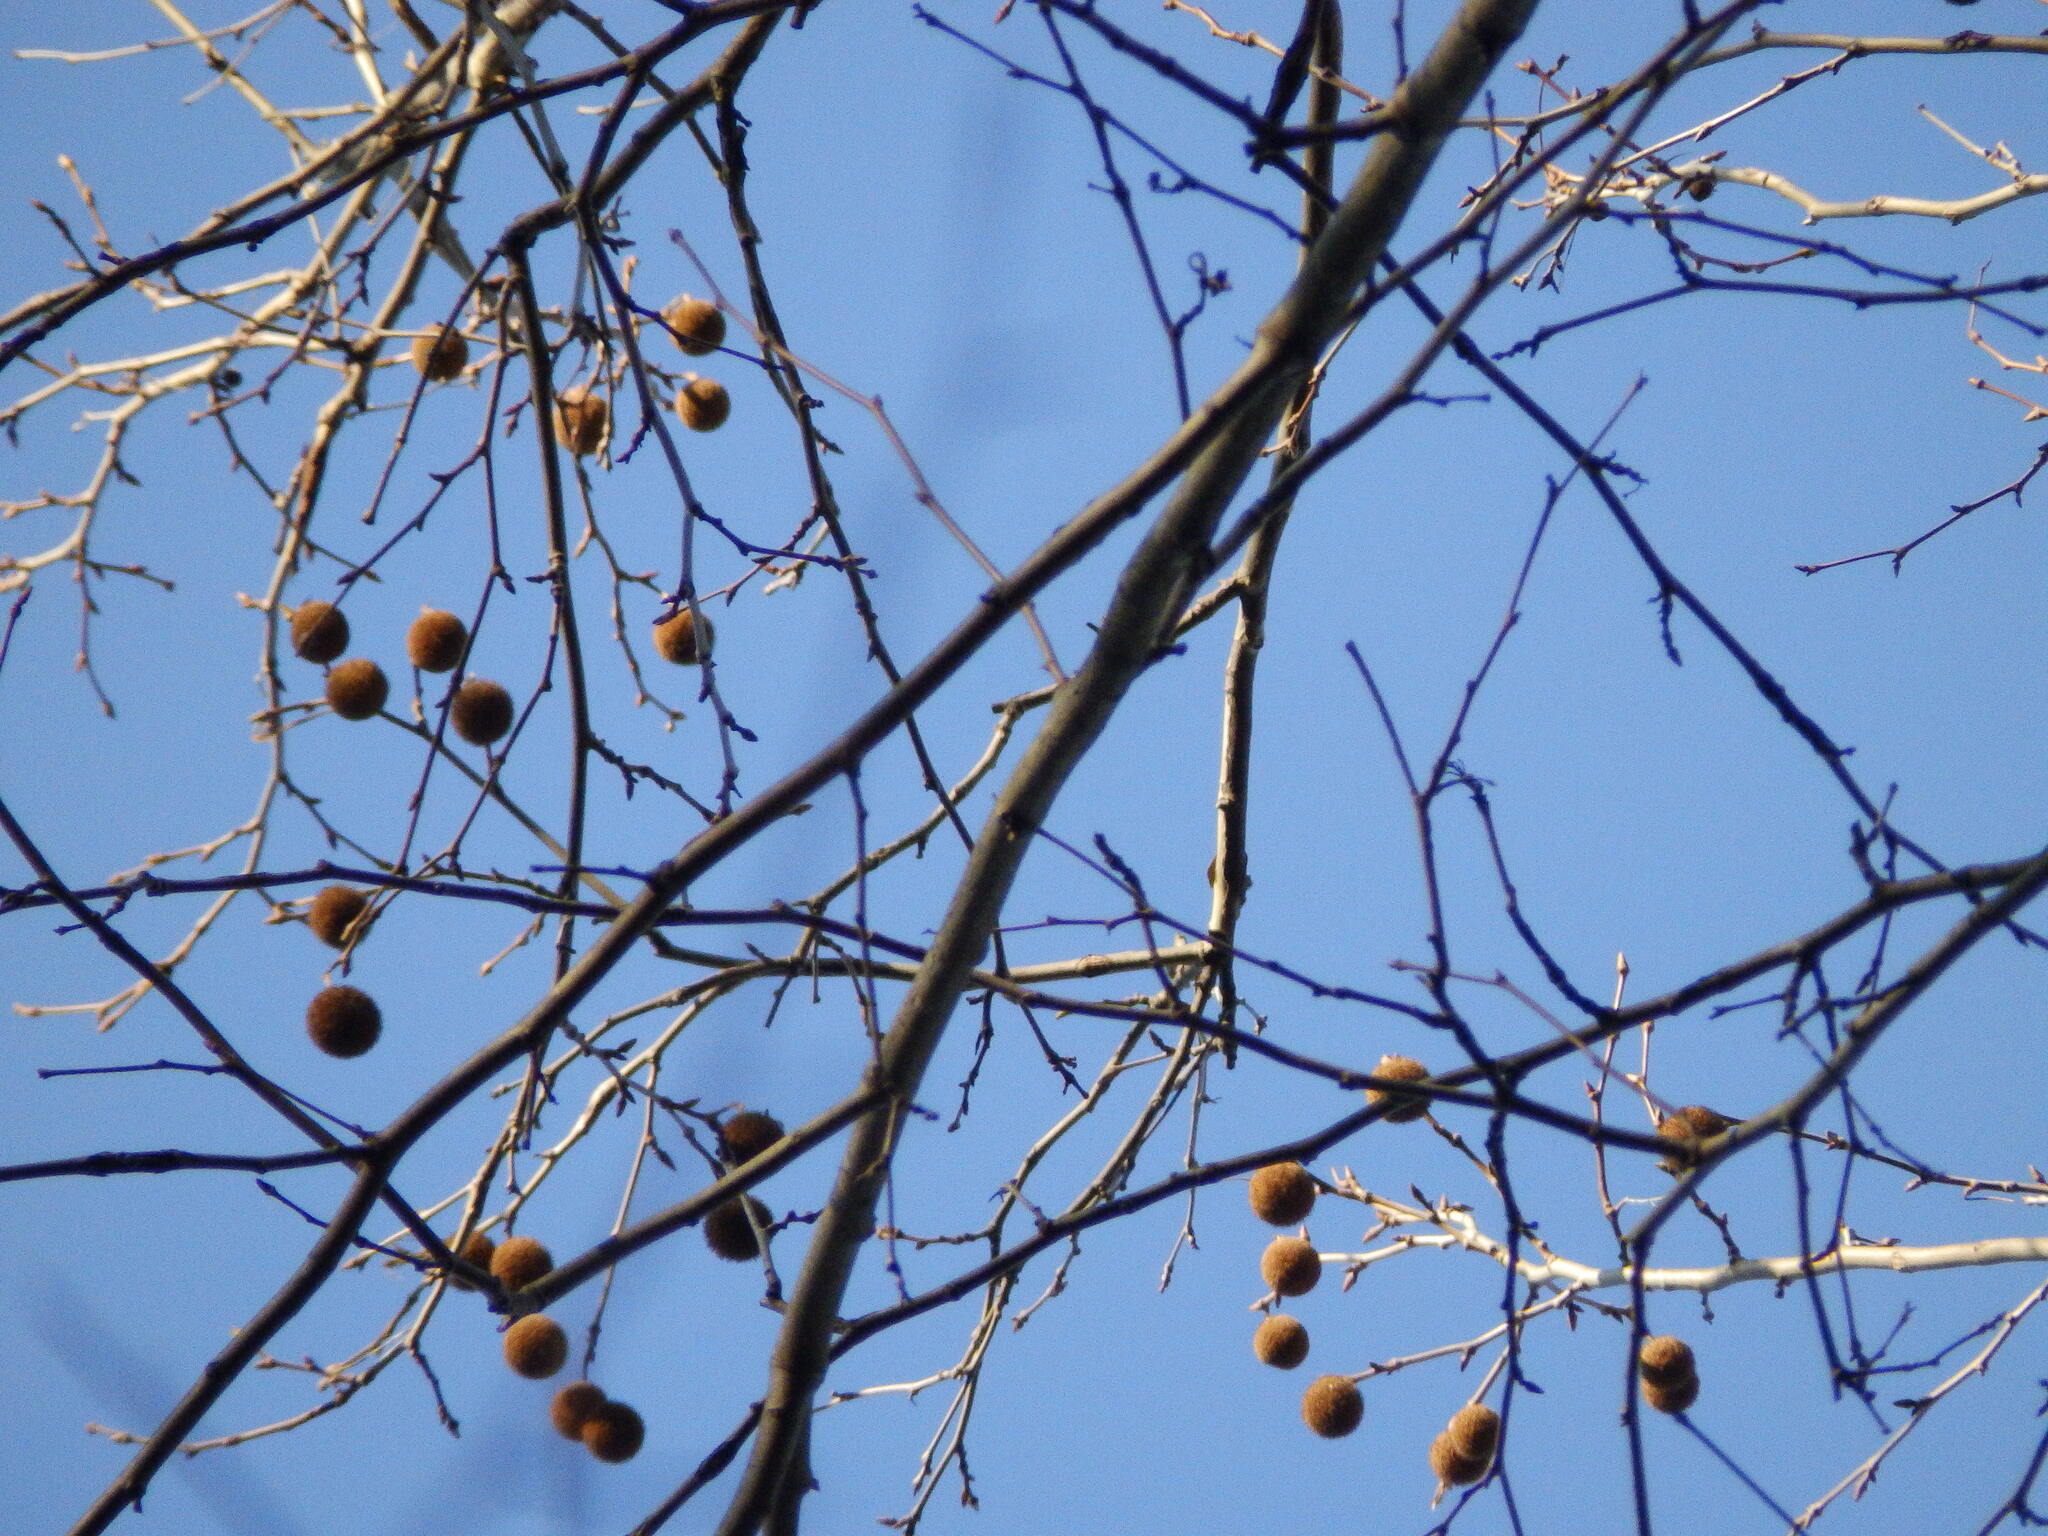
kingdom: Plantae
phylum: Tracheophyta
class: Magnoliopsida
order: Proteales
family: Platanaceae
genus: Platanus
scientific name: Platanus occidentalis
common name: American sycamore
